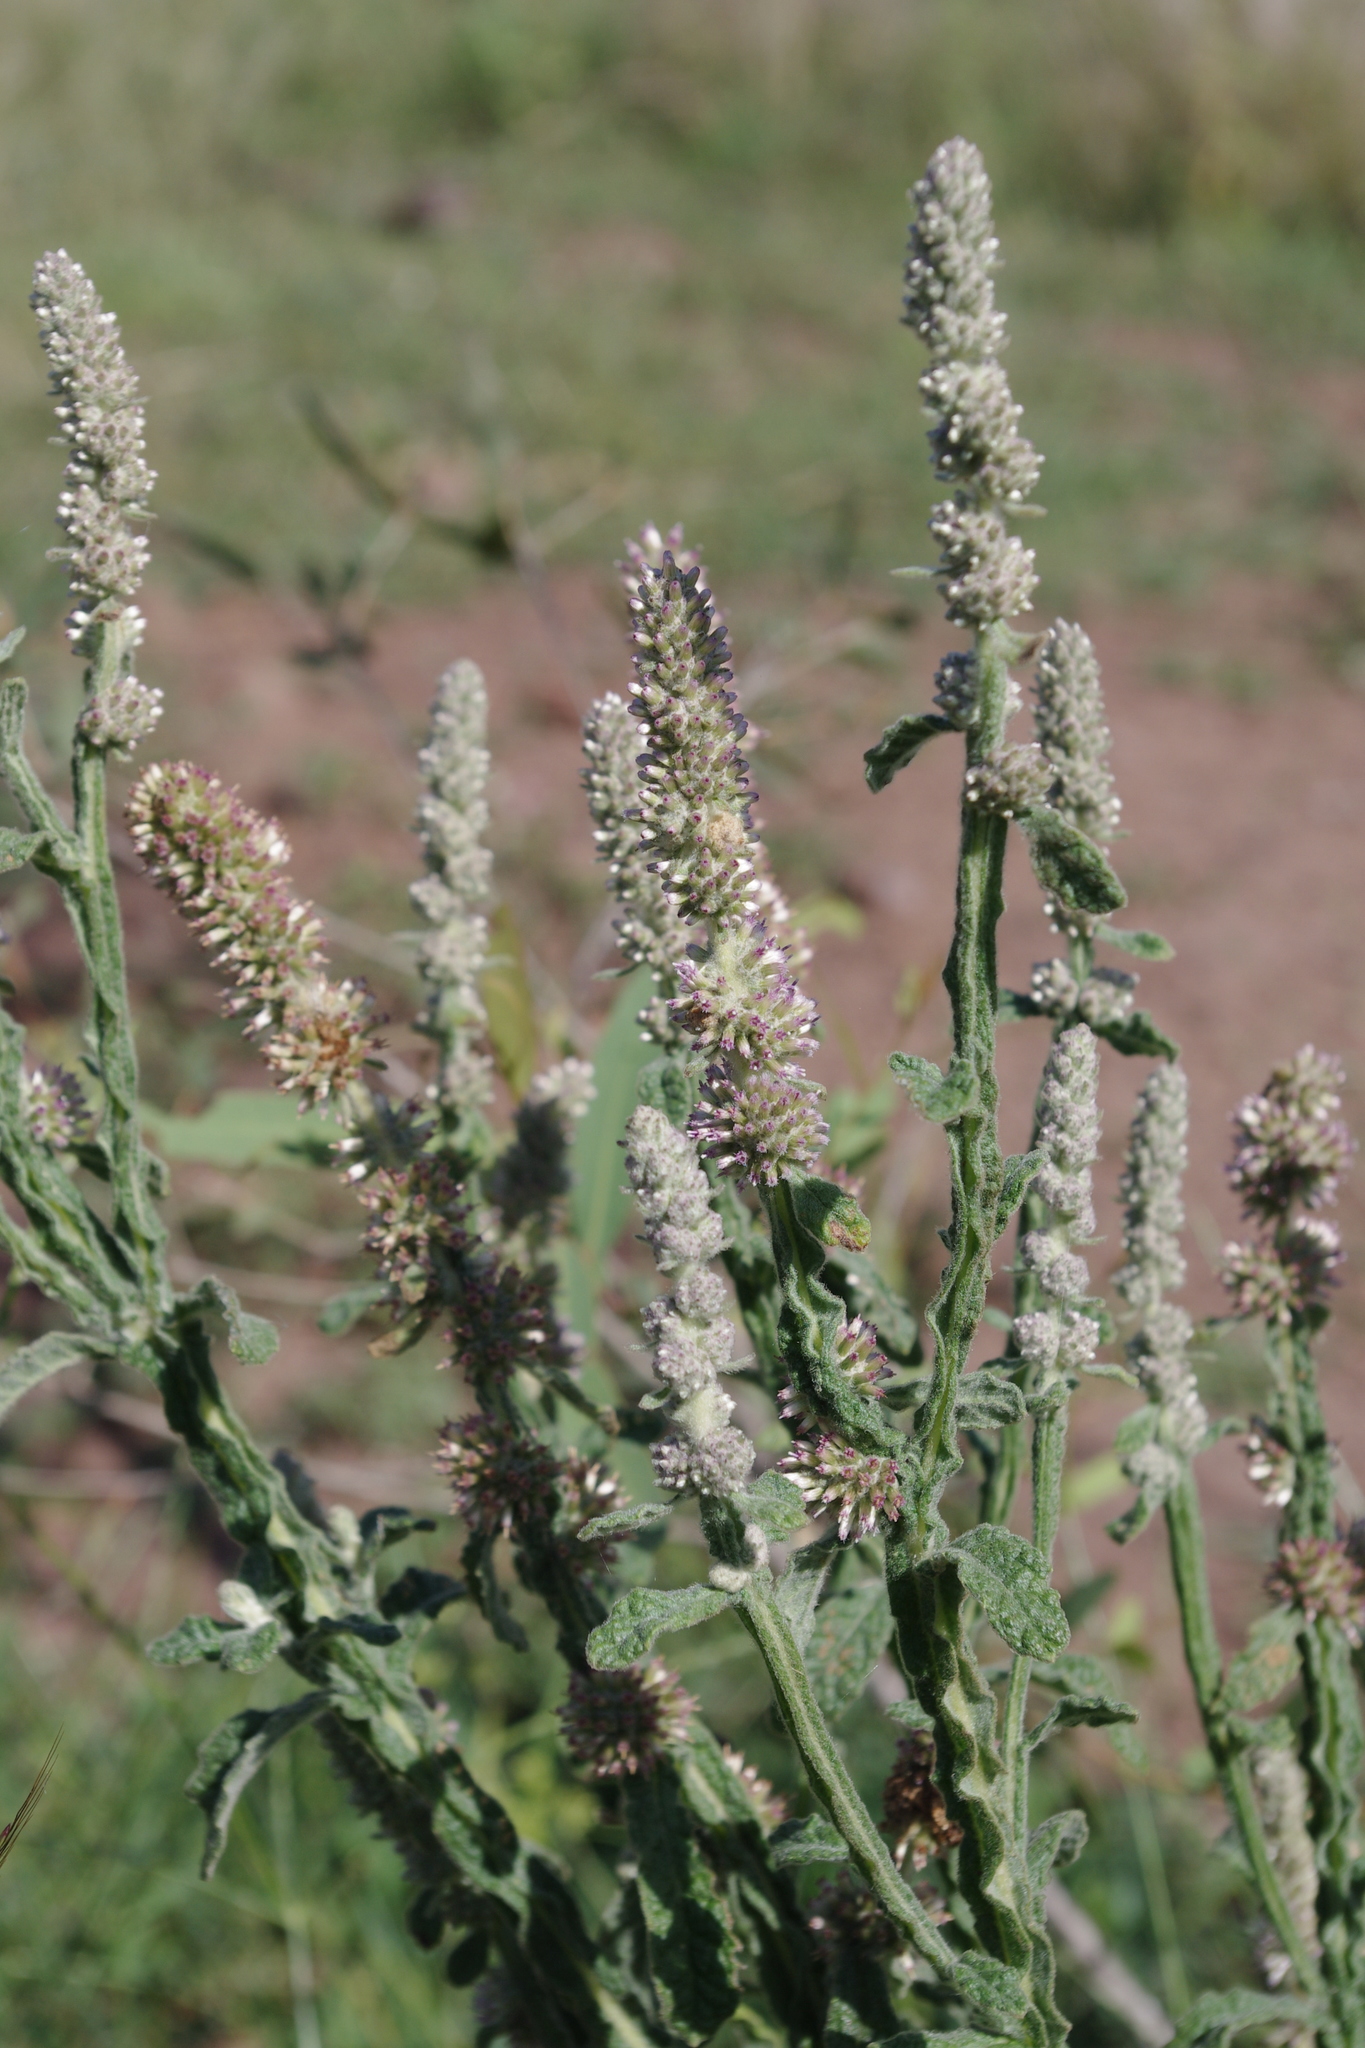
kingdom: Plantae
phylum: Tracheophyta
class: Magnoliopsida
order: Asterales
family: Asteraceae
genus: Pterocaulon
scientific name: Pterocaulon redolens
